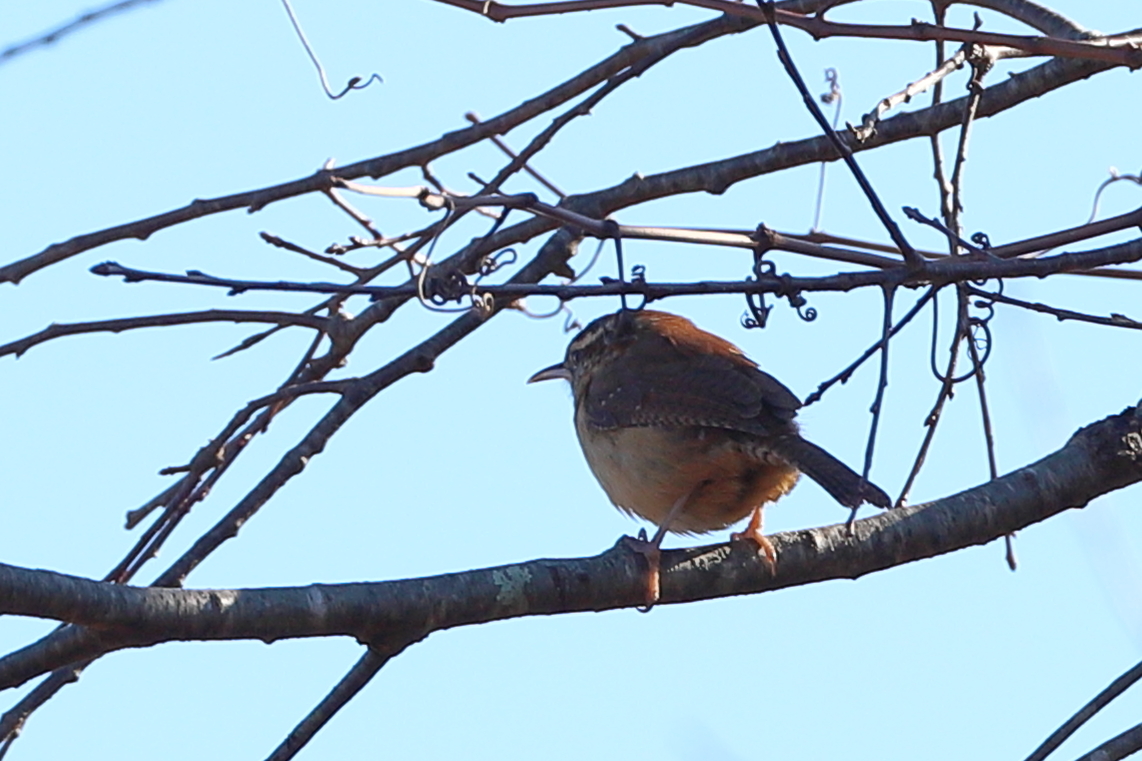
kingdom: Animalia
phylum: Chordata
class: Aves
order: Passeriformes
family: Troglodytidae
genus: Thryothorus
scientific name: Thryothorus ludovicianus
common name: Carolina wren
